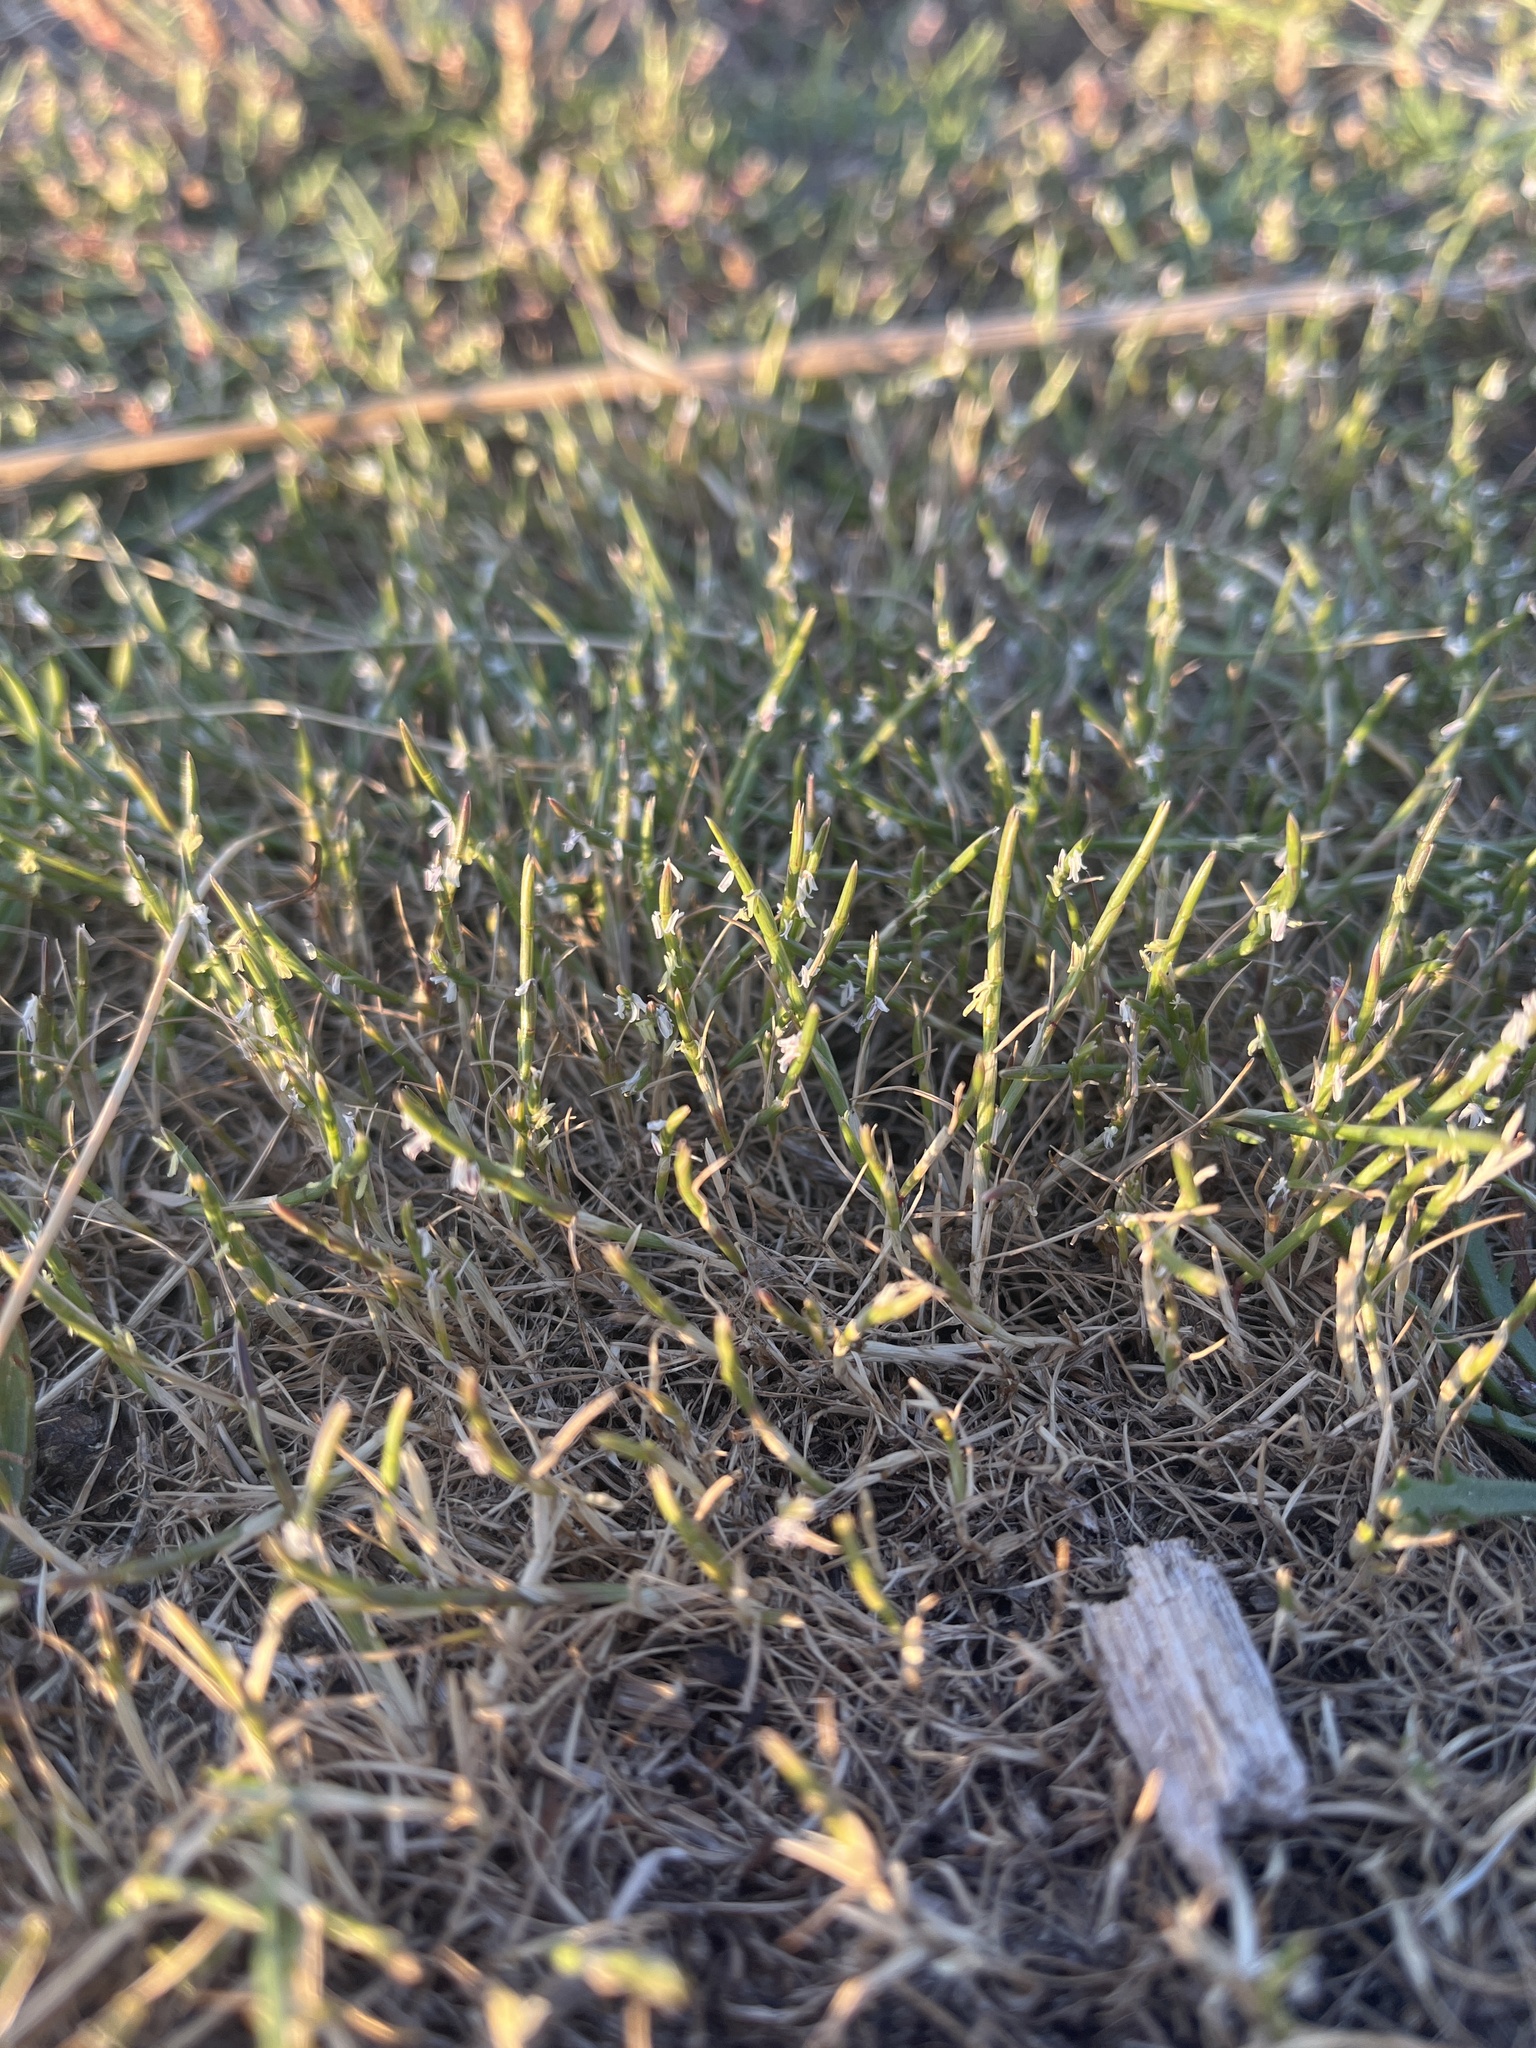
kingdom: Plantae
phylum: Tracheophyta
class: Liliopsida
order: Poales
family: Poaceae
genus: Parapholis
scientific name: Parapholis strigosa
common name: Hard-grass
